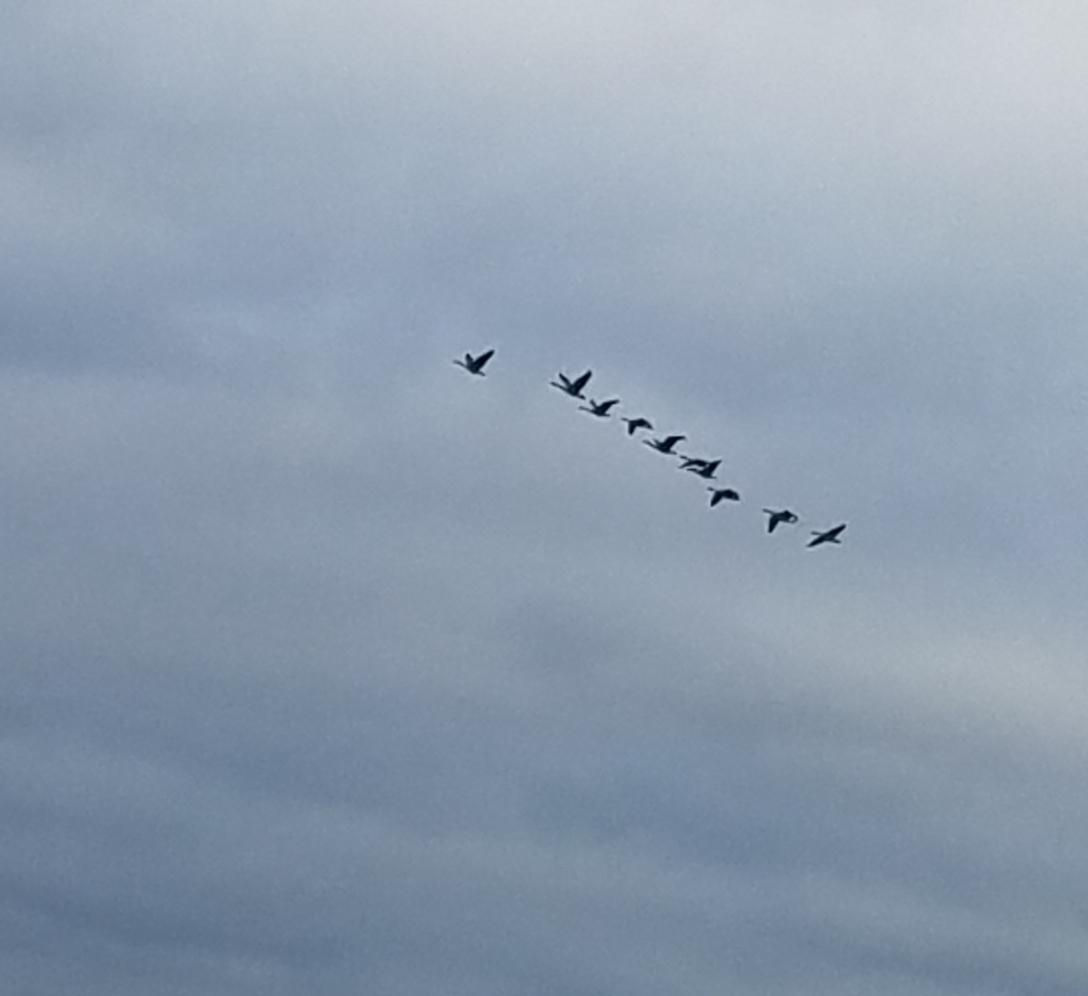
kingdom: Animalia
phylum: Chordata
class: Aves
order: Anseriformes
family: Anatidae
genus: Branta
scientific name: Branta canadensis
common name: Canada goose
